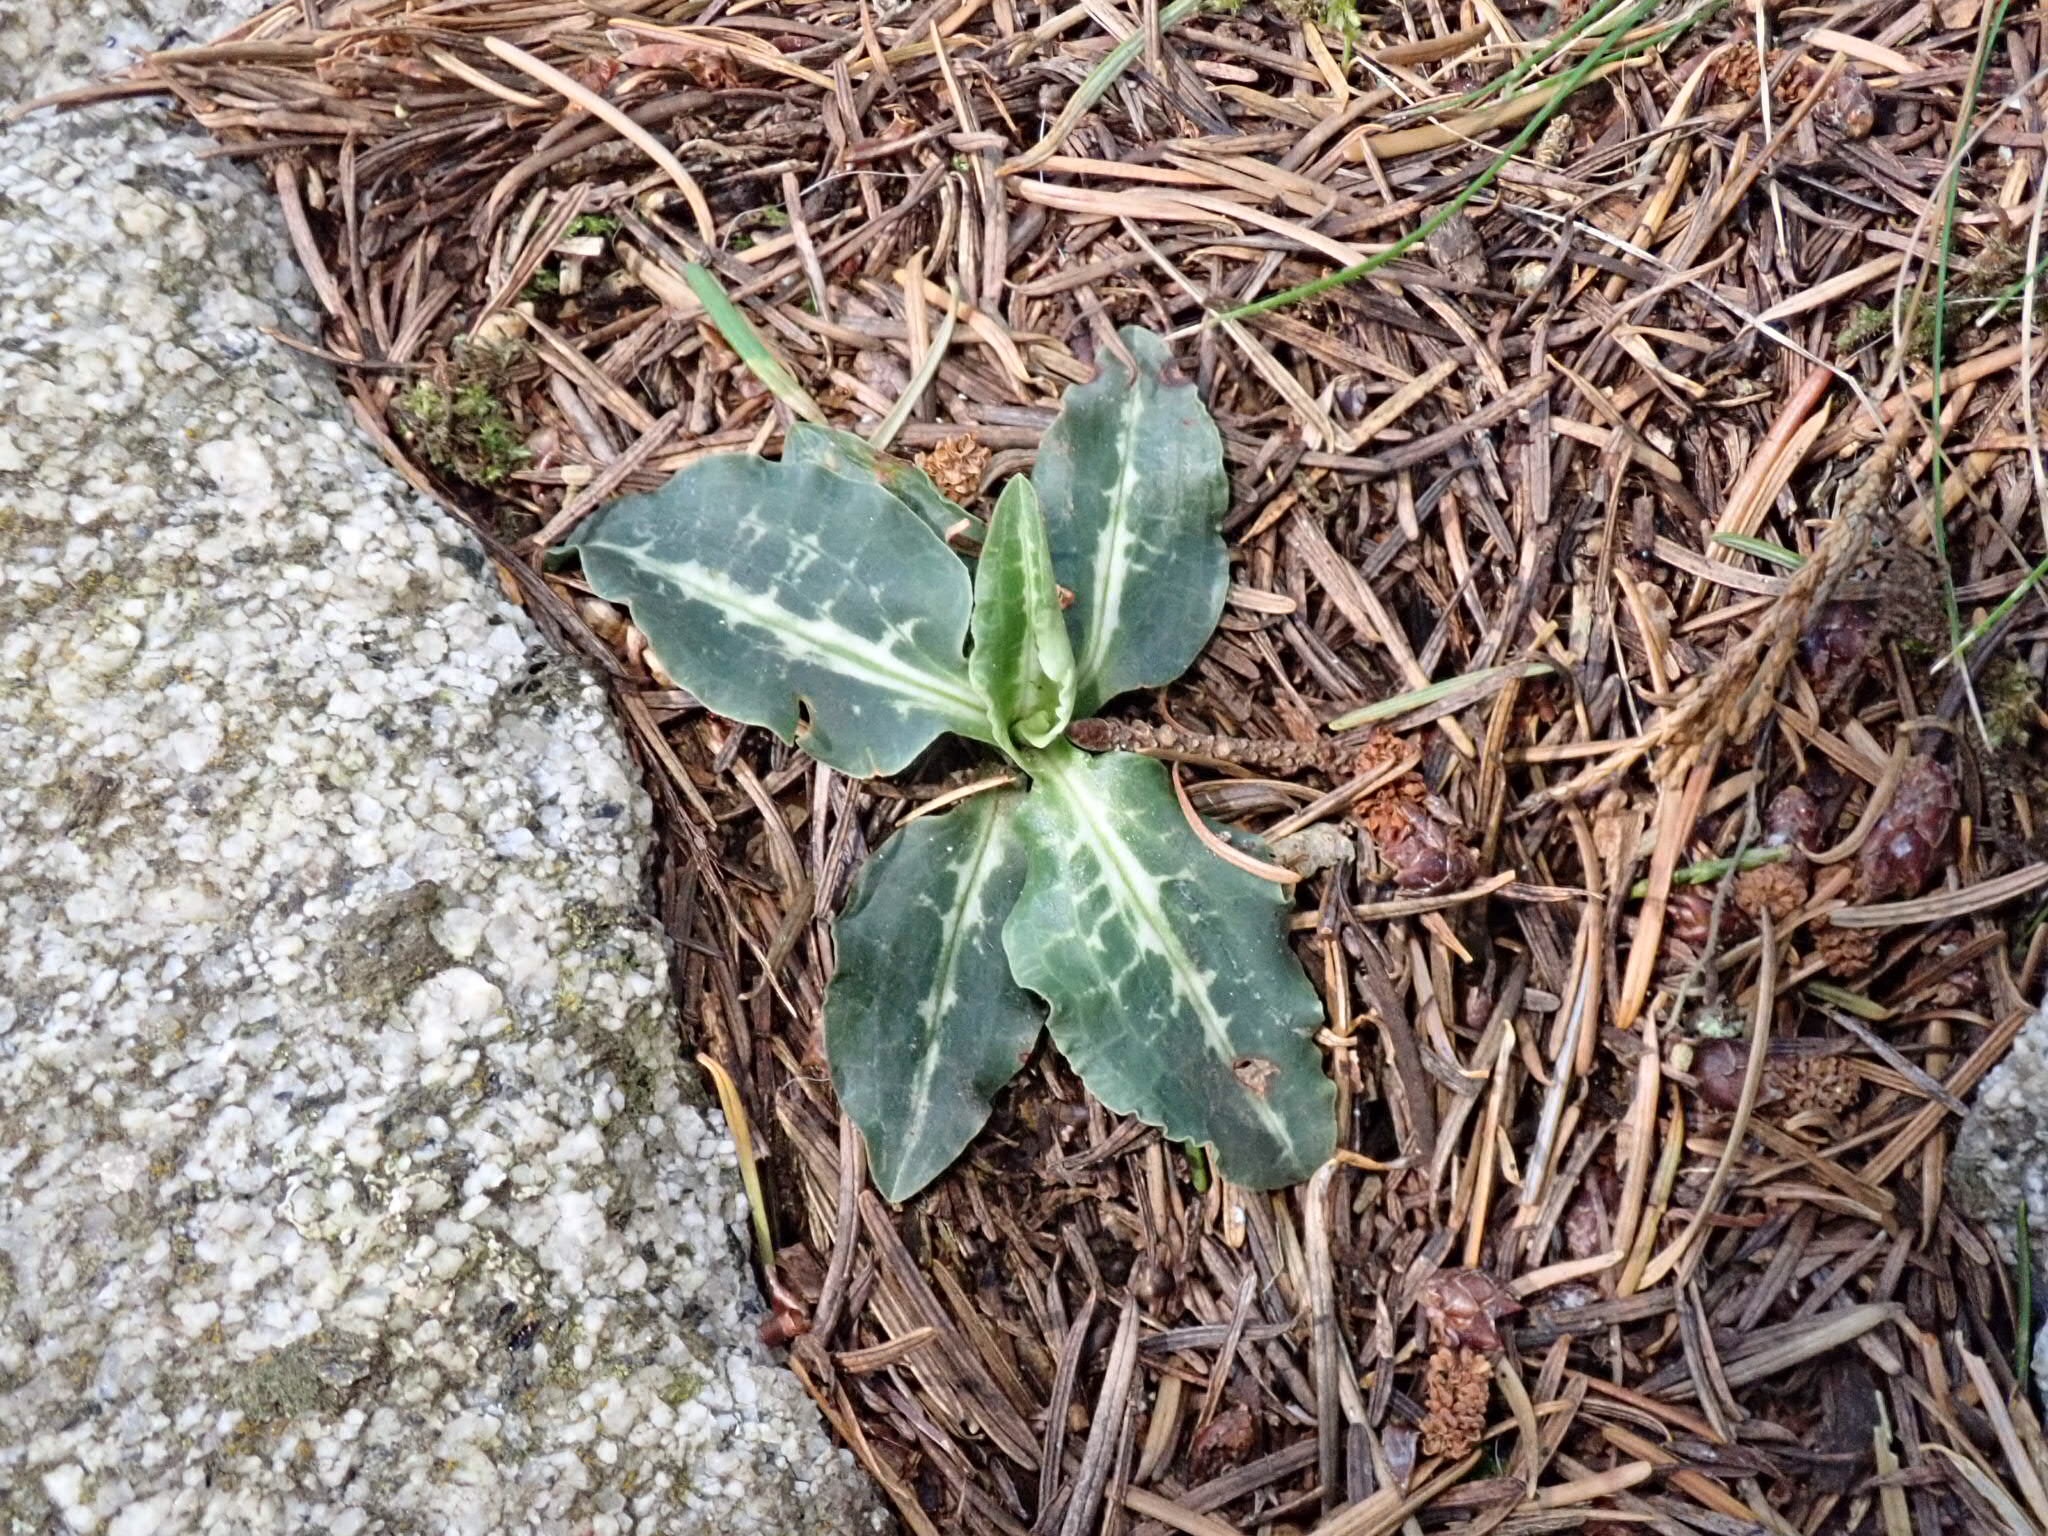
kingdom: Plantae
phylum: Tracheophyta
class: Liliopsida
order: Asparagales
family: Orchidaceae
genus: Goodyera
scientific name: Goodyera oblongifolia
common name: Giant rattlesnake-plantain
